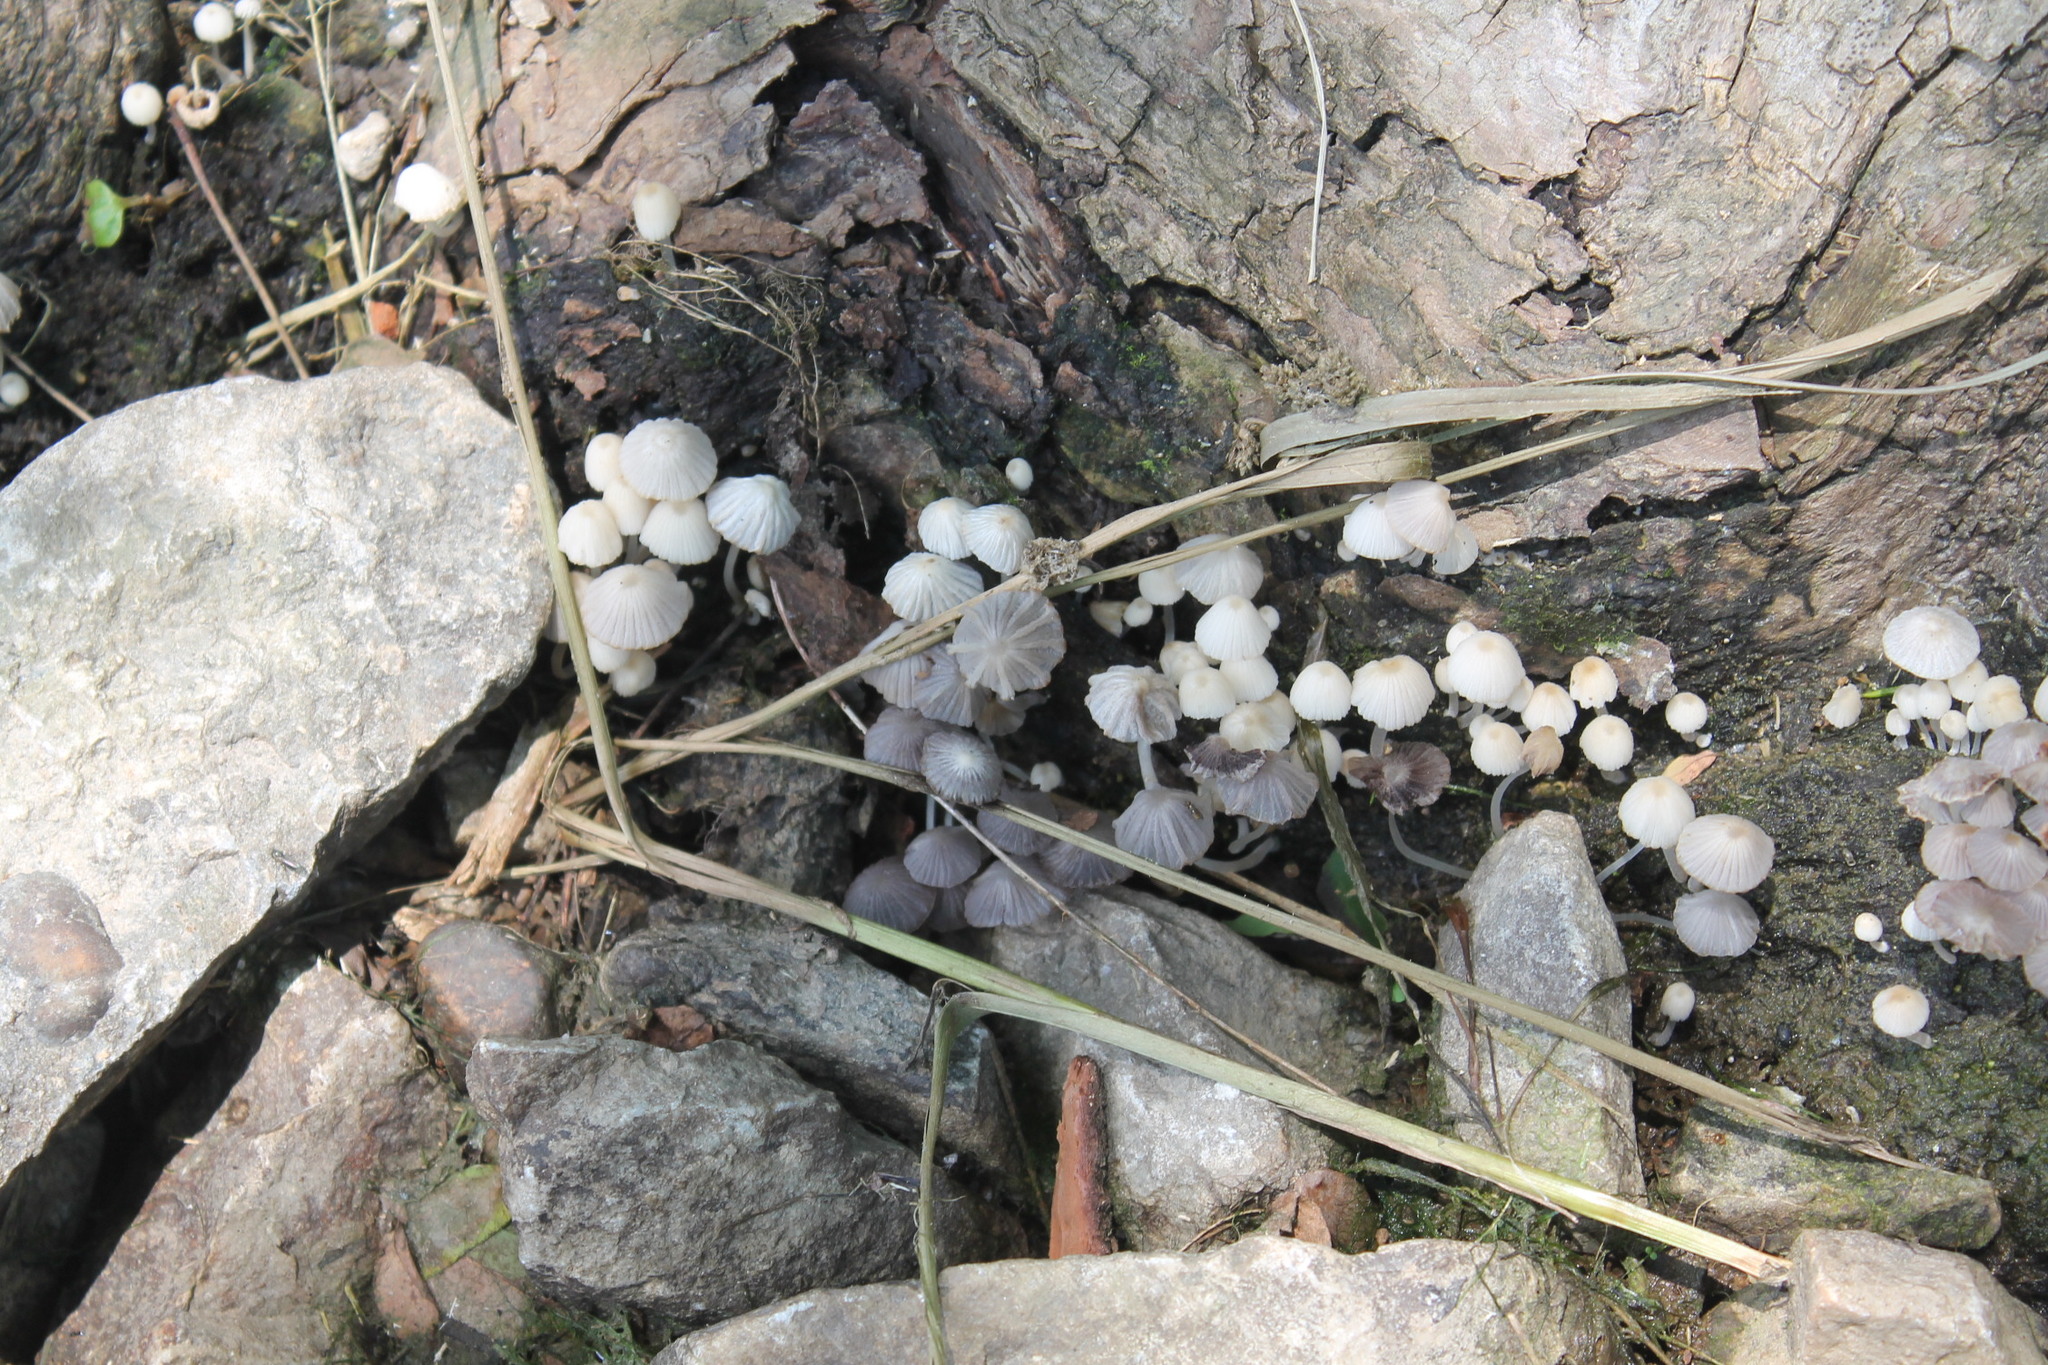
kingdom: Fungi
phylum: Basidiomycota
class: Agaricomycetes
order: Agaricales
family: Psathyrellaceae
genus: Coprinellus
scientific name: Coprinellus disseminatus
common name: Fairies' bonnets
